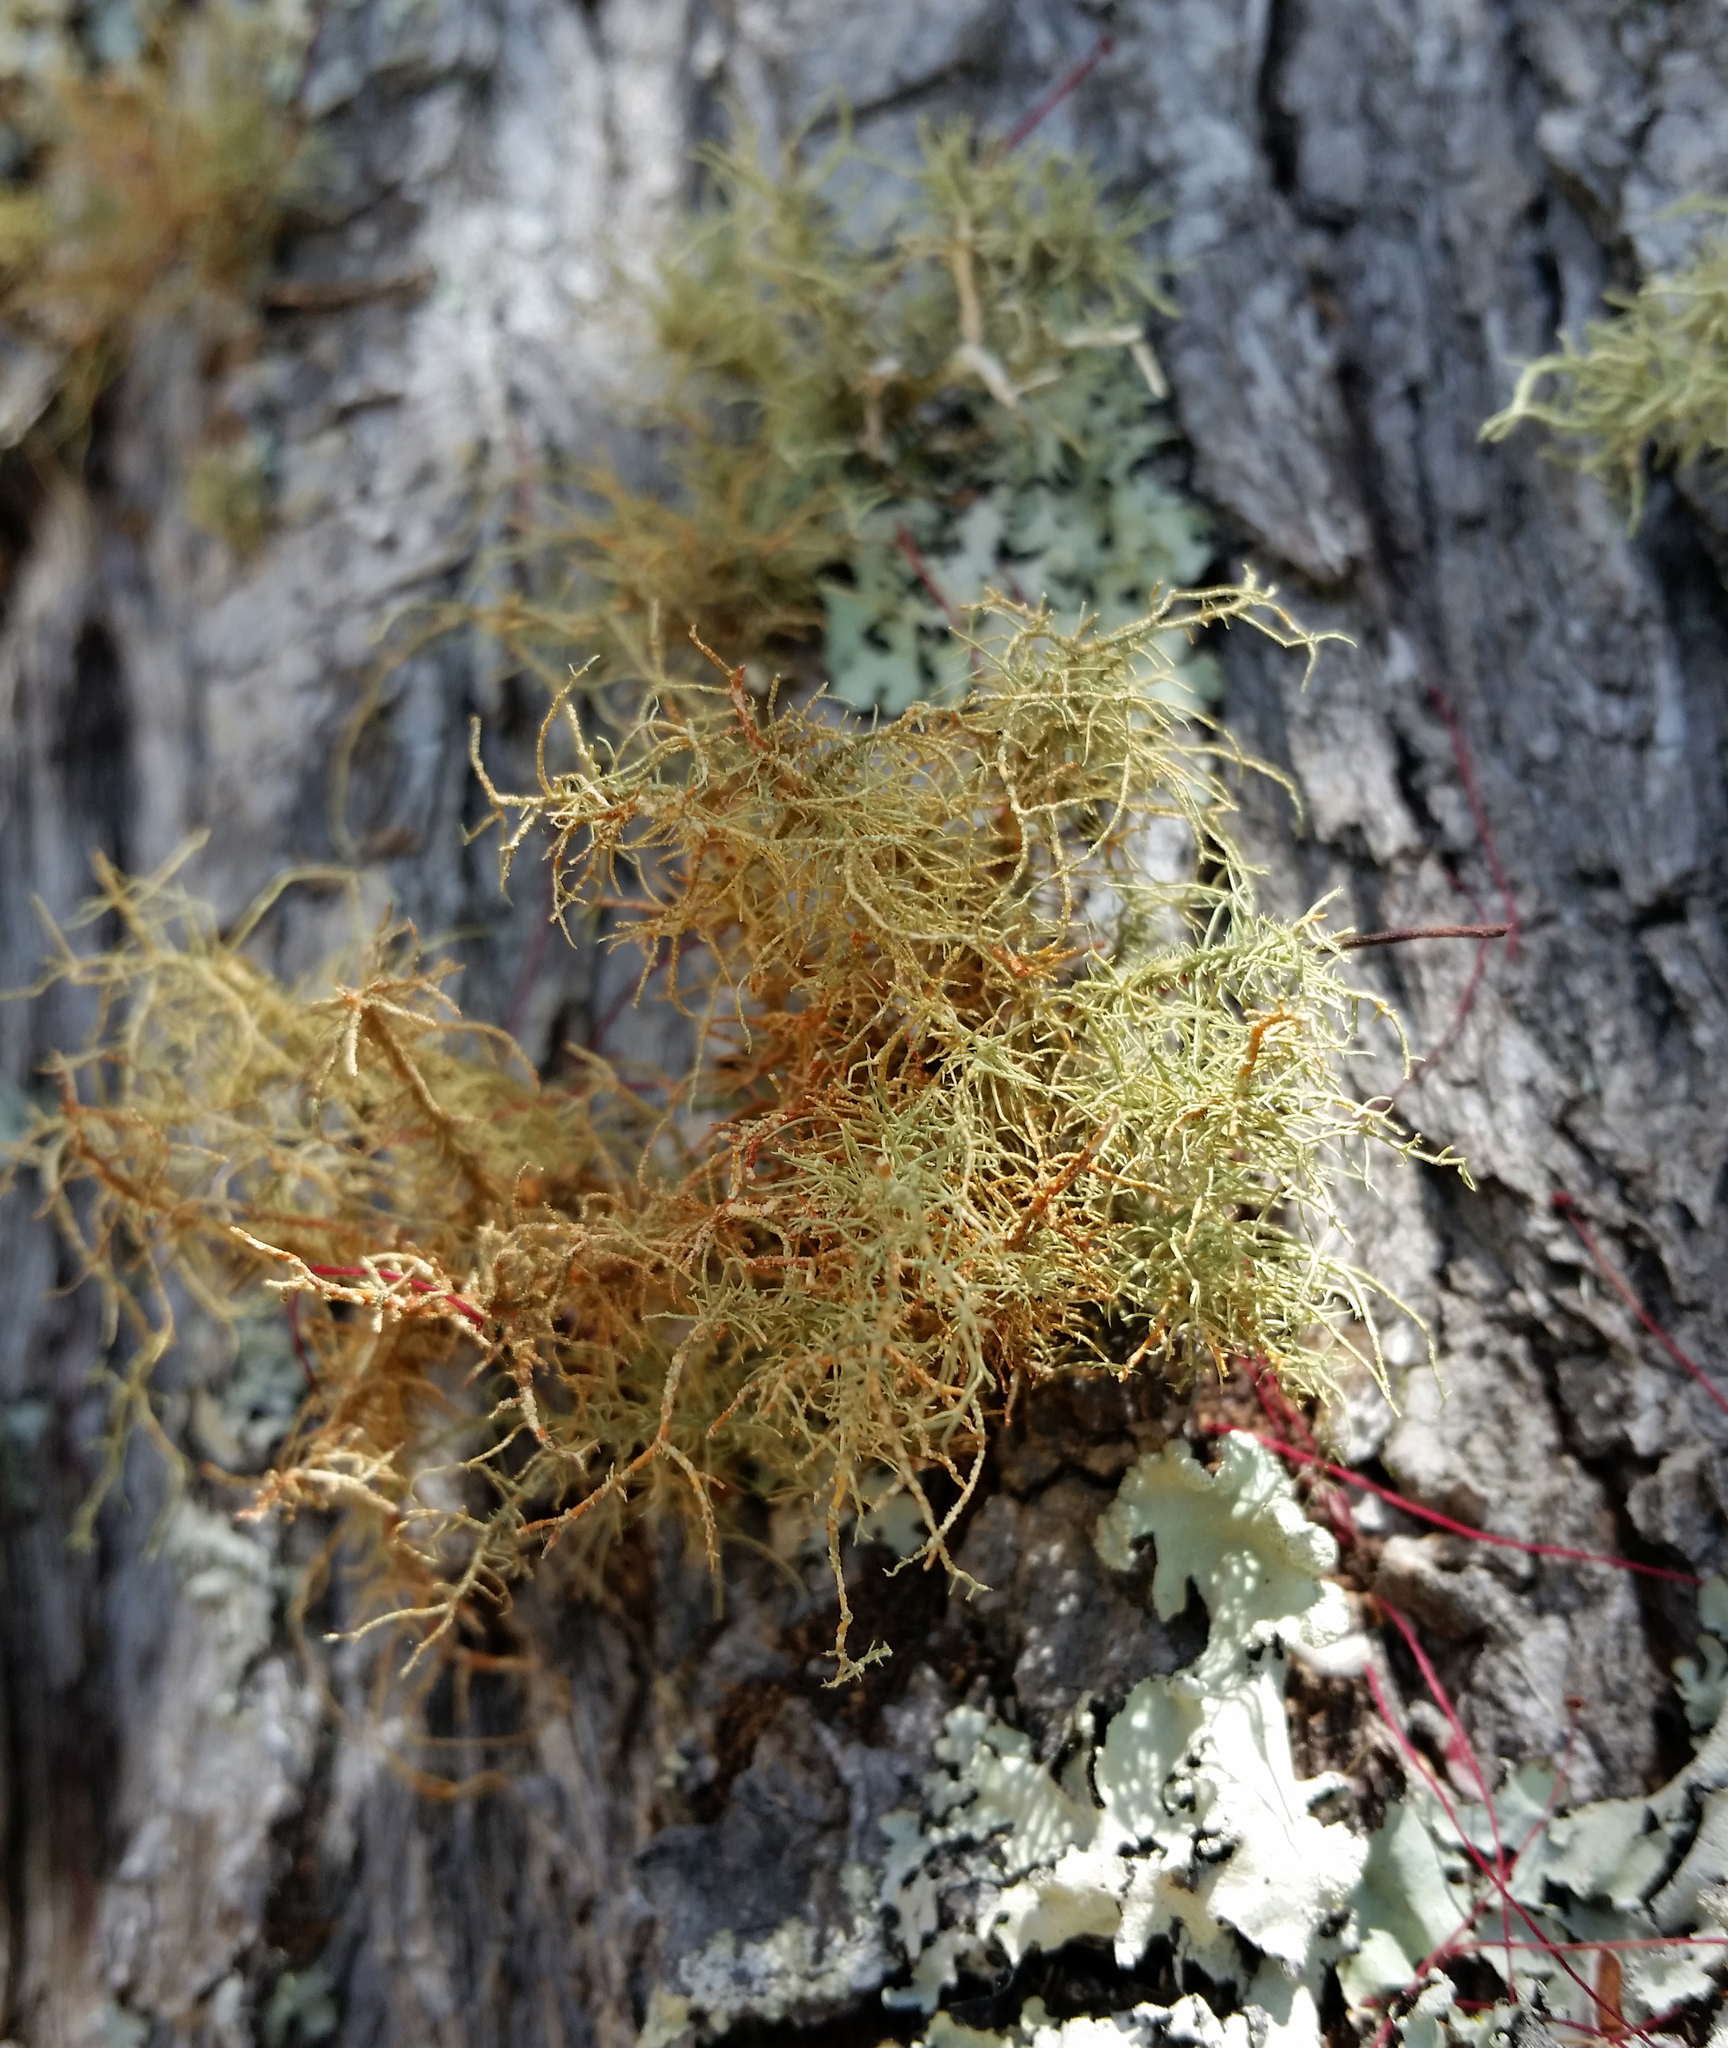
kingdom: Fungi
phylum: Ascomycota
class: Lecanoromycetes
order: Lecanorales
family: Parmeliaceae
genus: Usnea
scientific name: Usnea rubicunda
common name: Red beard lichen
